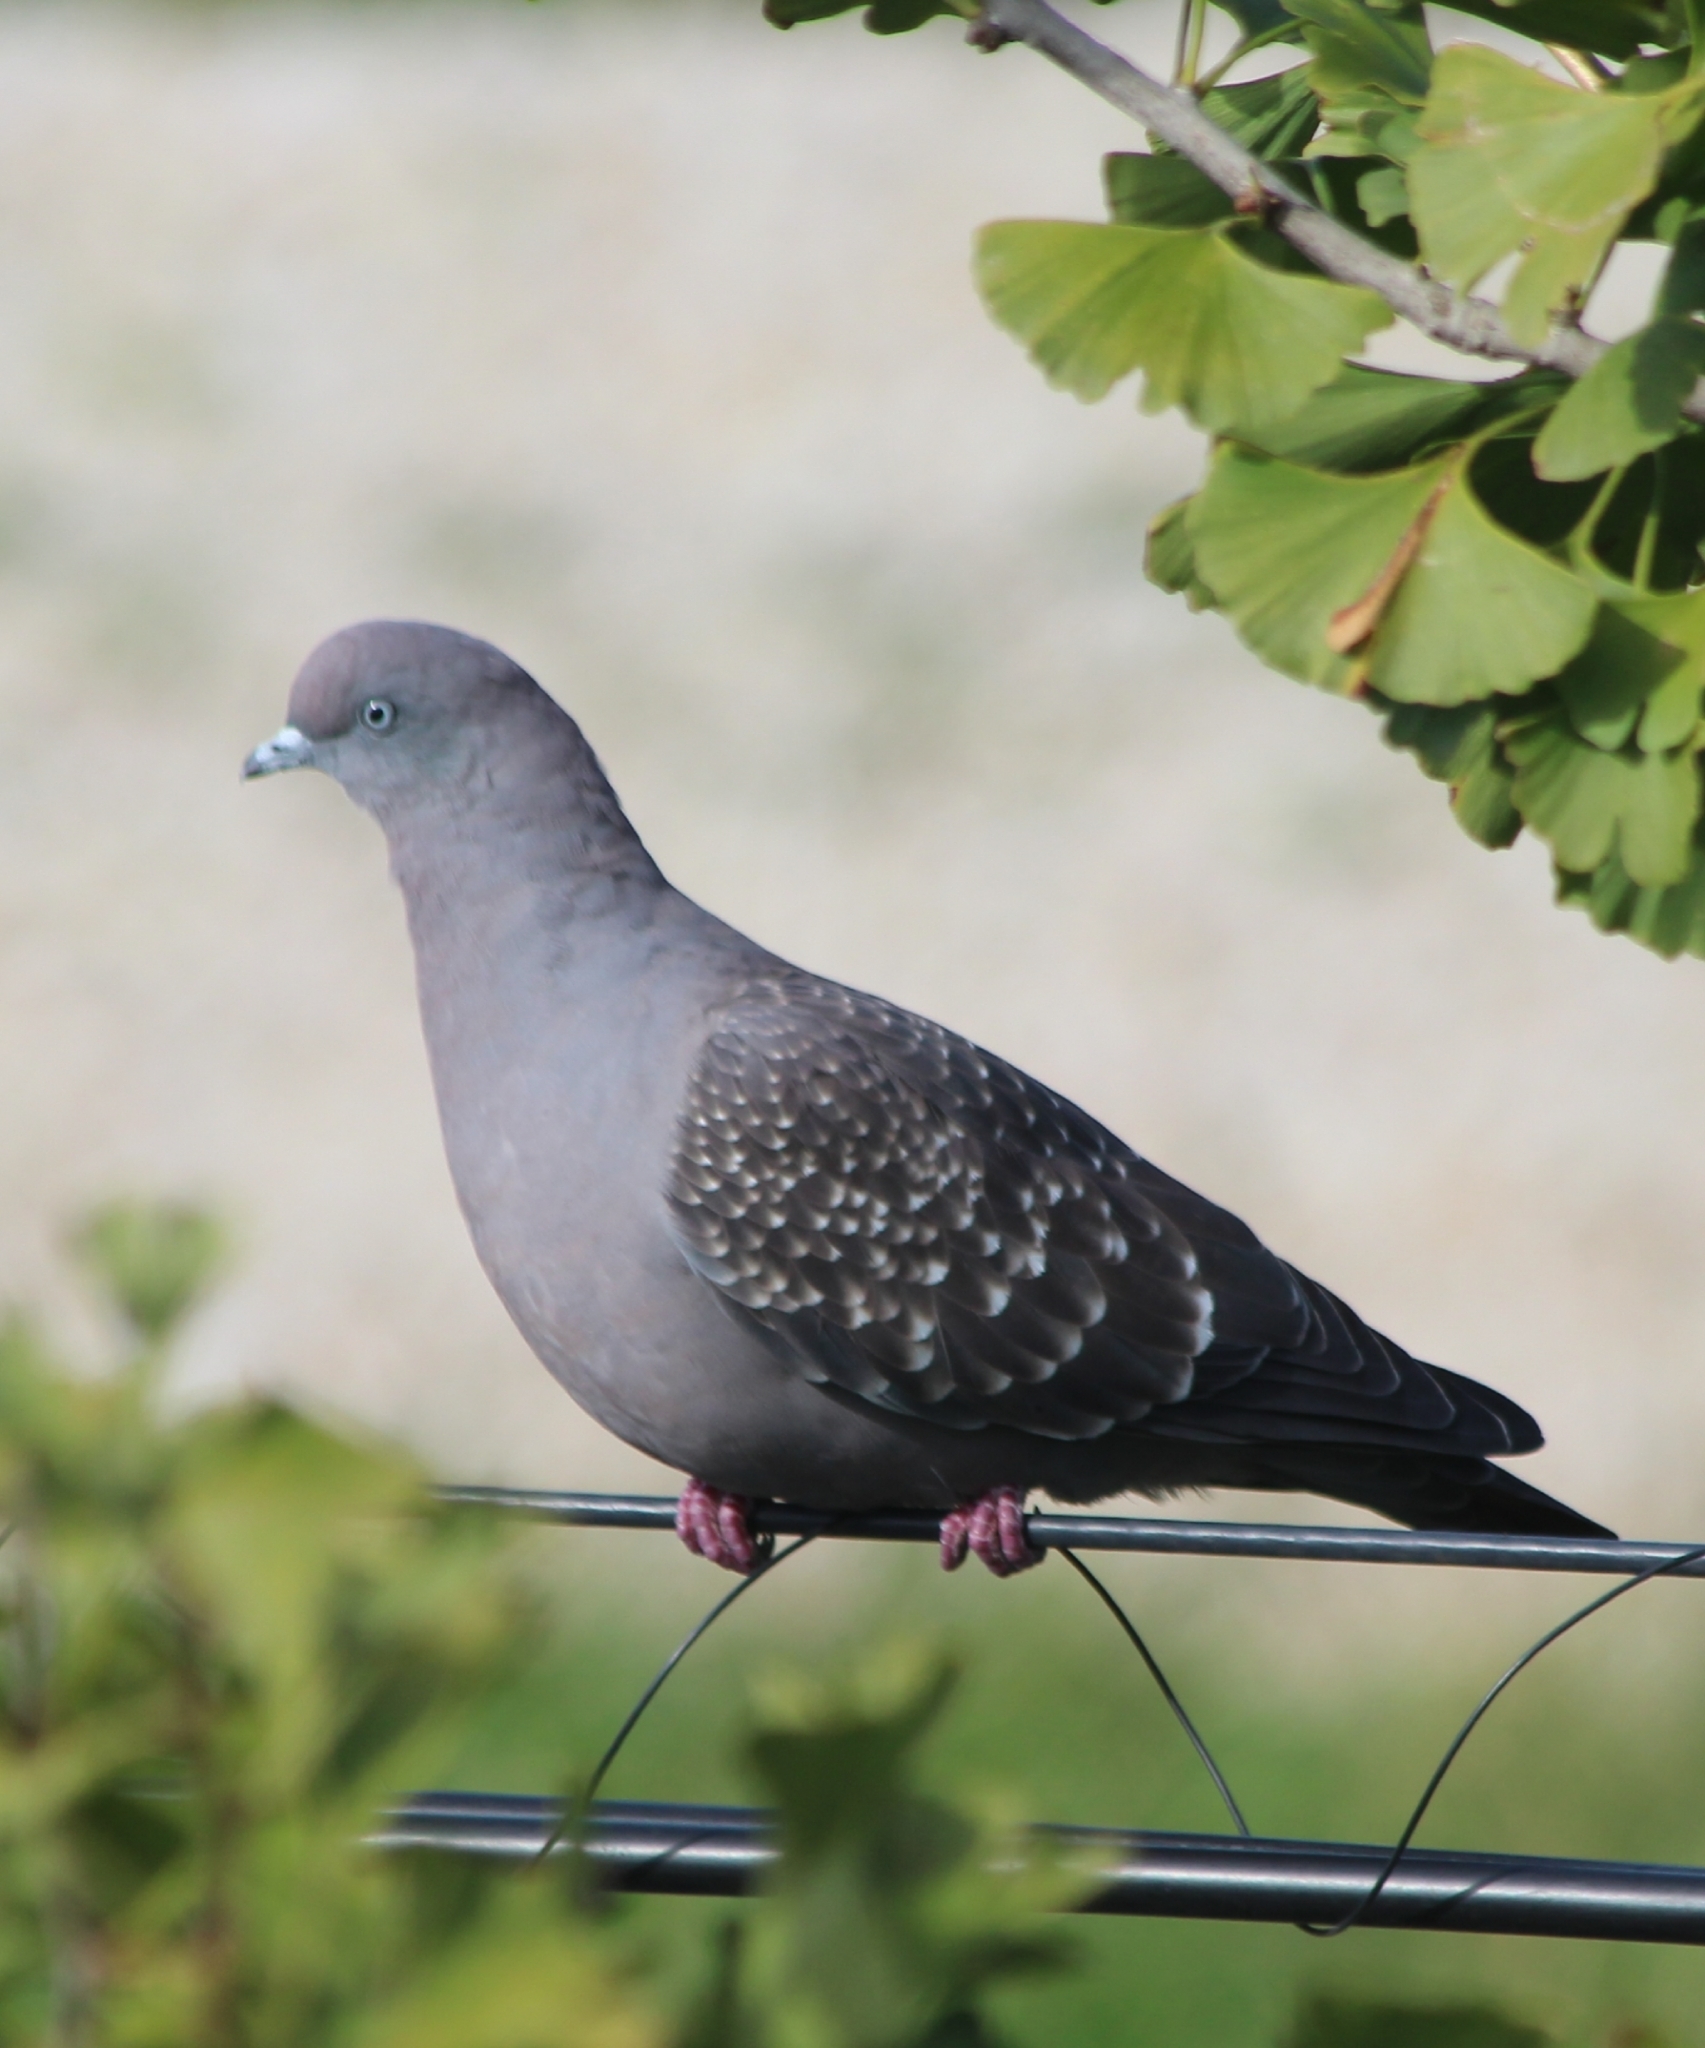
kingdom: Animalia
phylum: Chordata
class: Aves
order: Columbiformes
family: Columbidae
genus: Patagioenas
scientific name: Patagioenas maculosa
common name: Spot-winged pigeon
